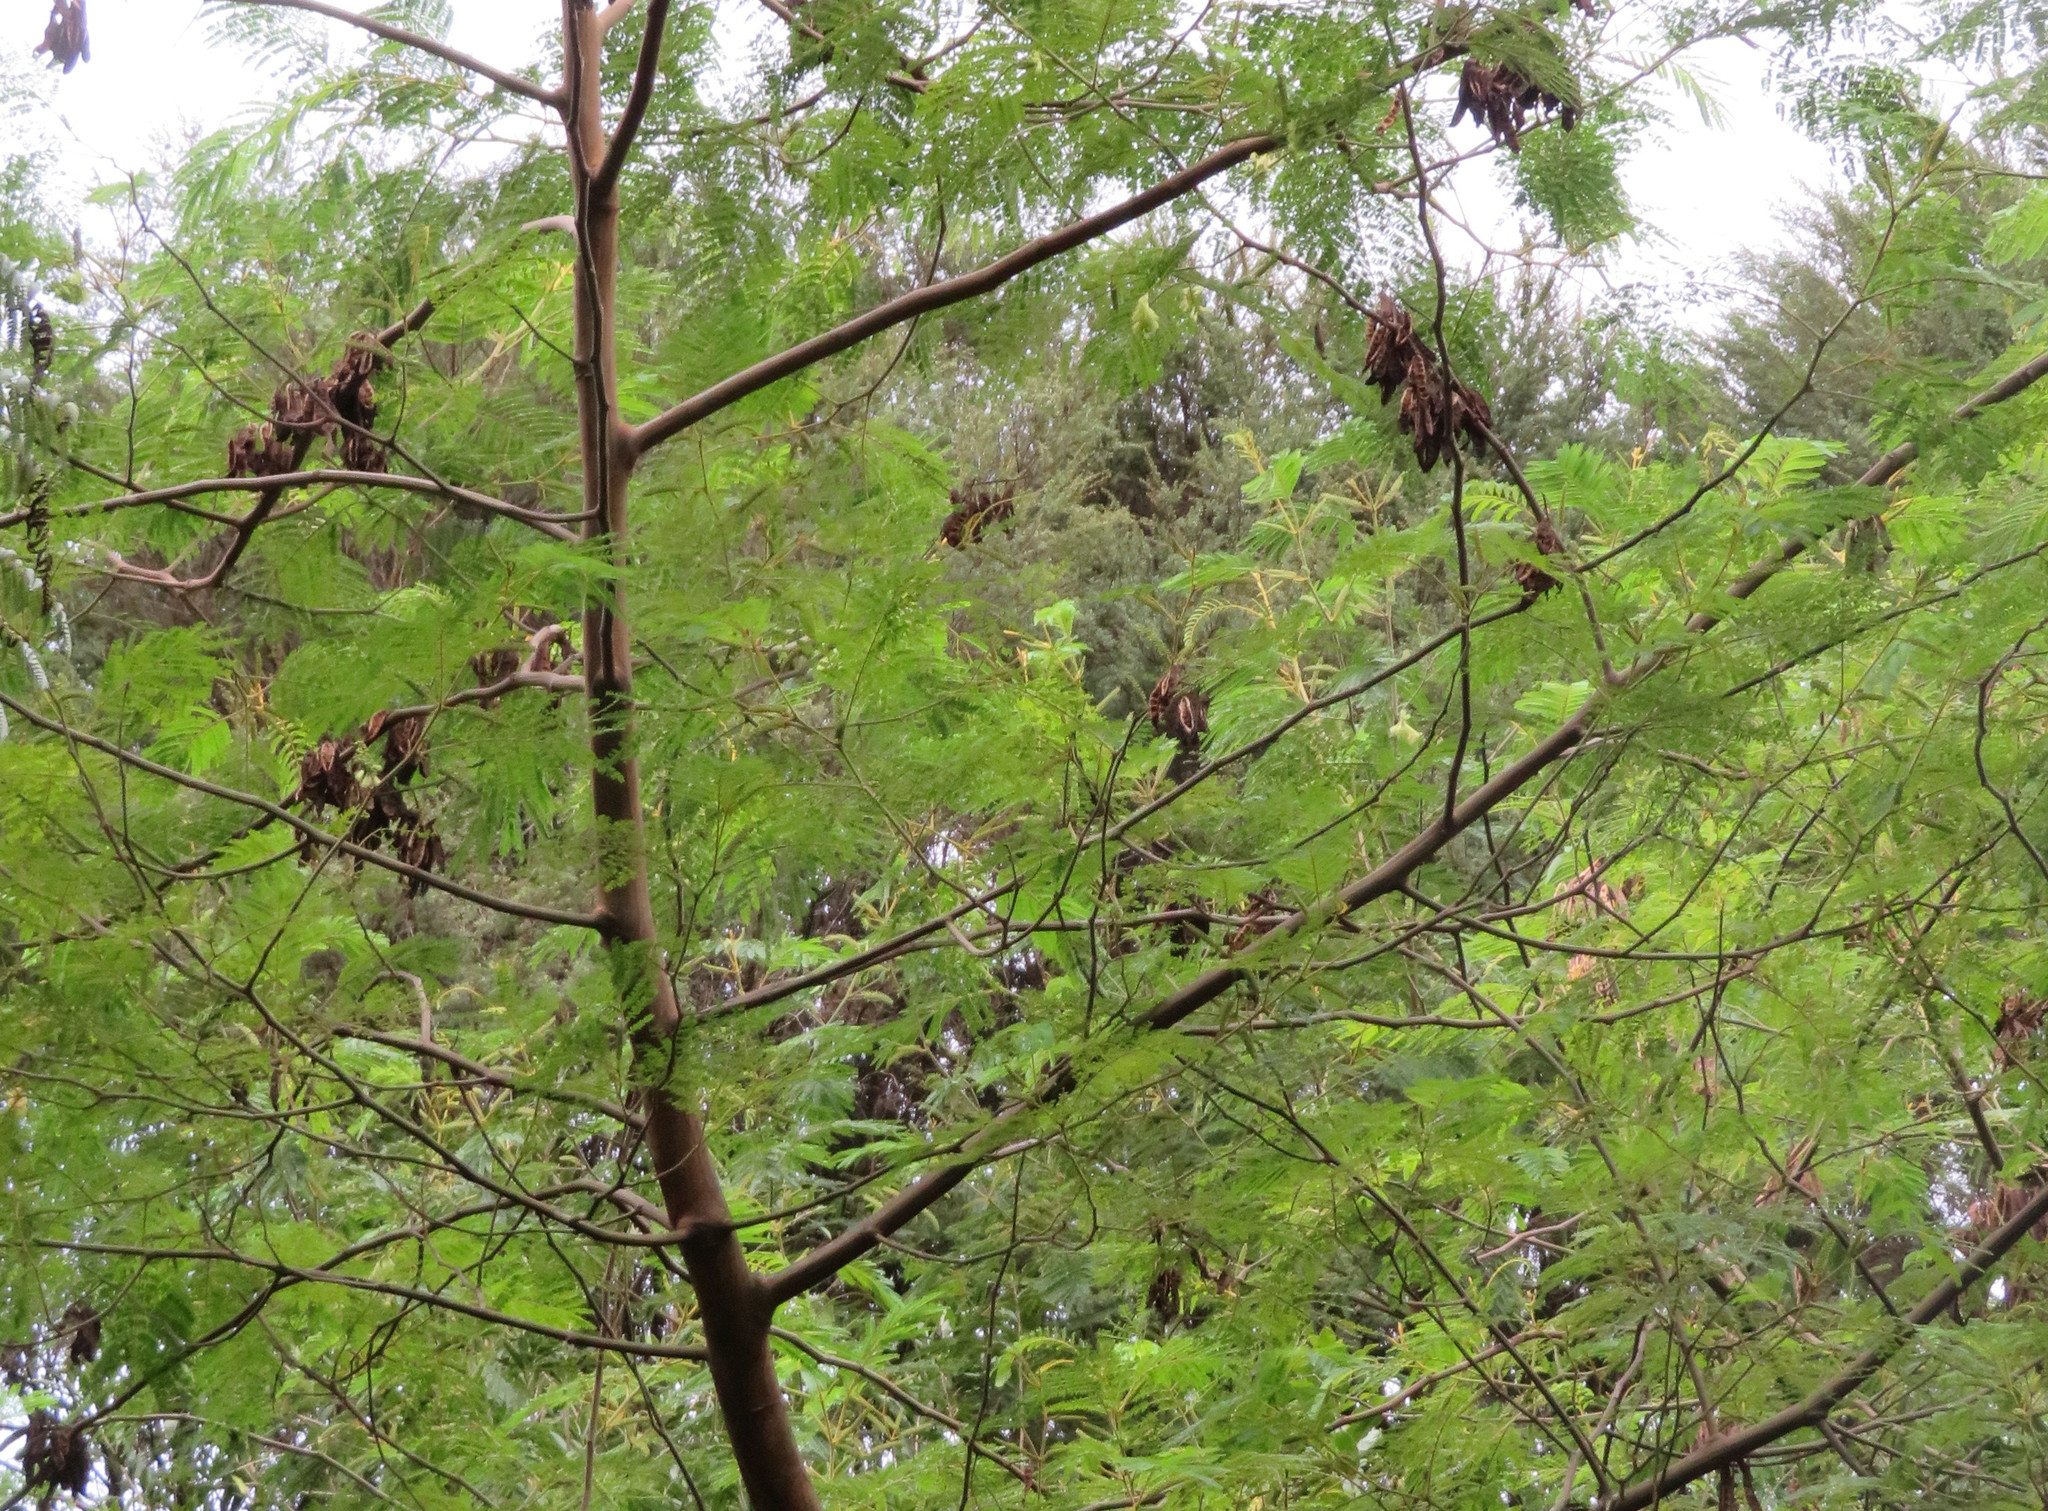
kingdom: Plantae
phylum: Tracheophyta
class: Magnoliopsida
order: Fabales
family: Fabaceae
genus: Paraserianthes
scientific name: Paraserianthes lophantha
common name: Plume albizia
